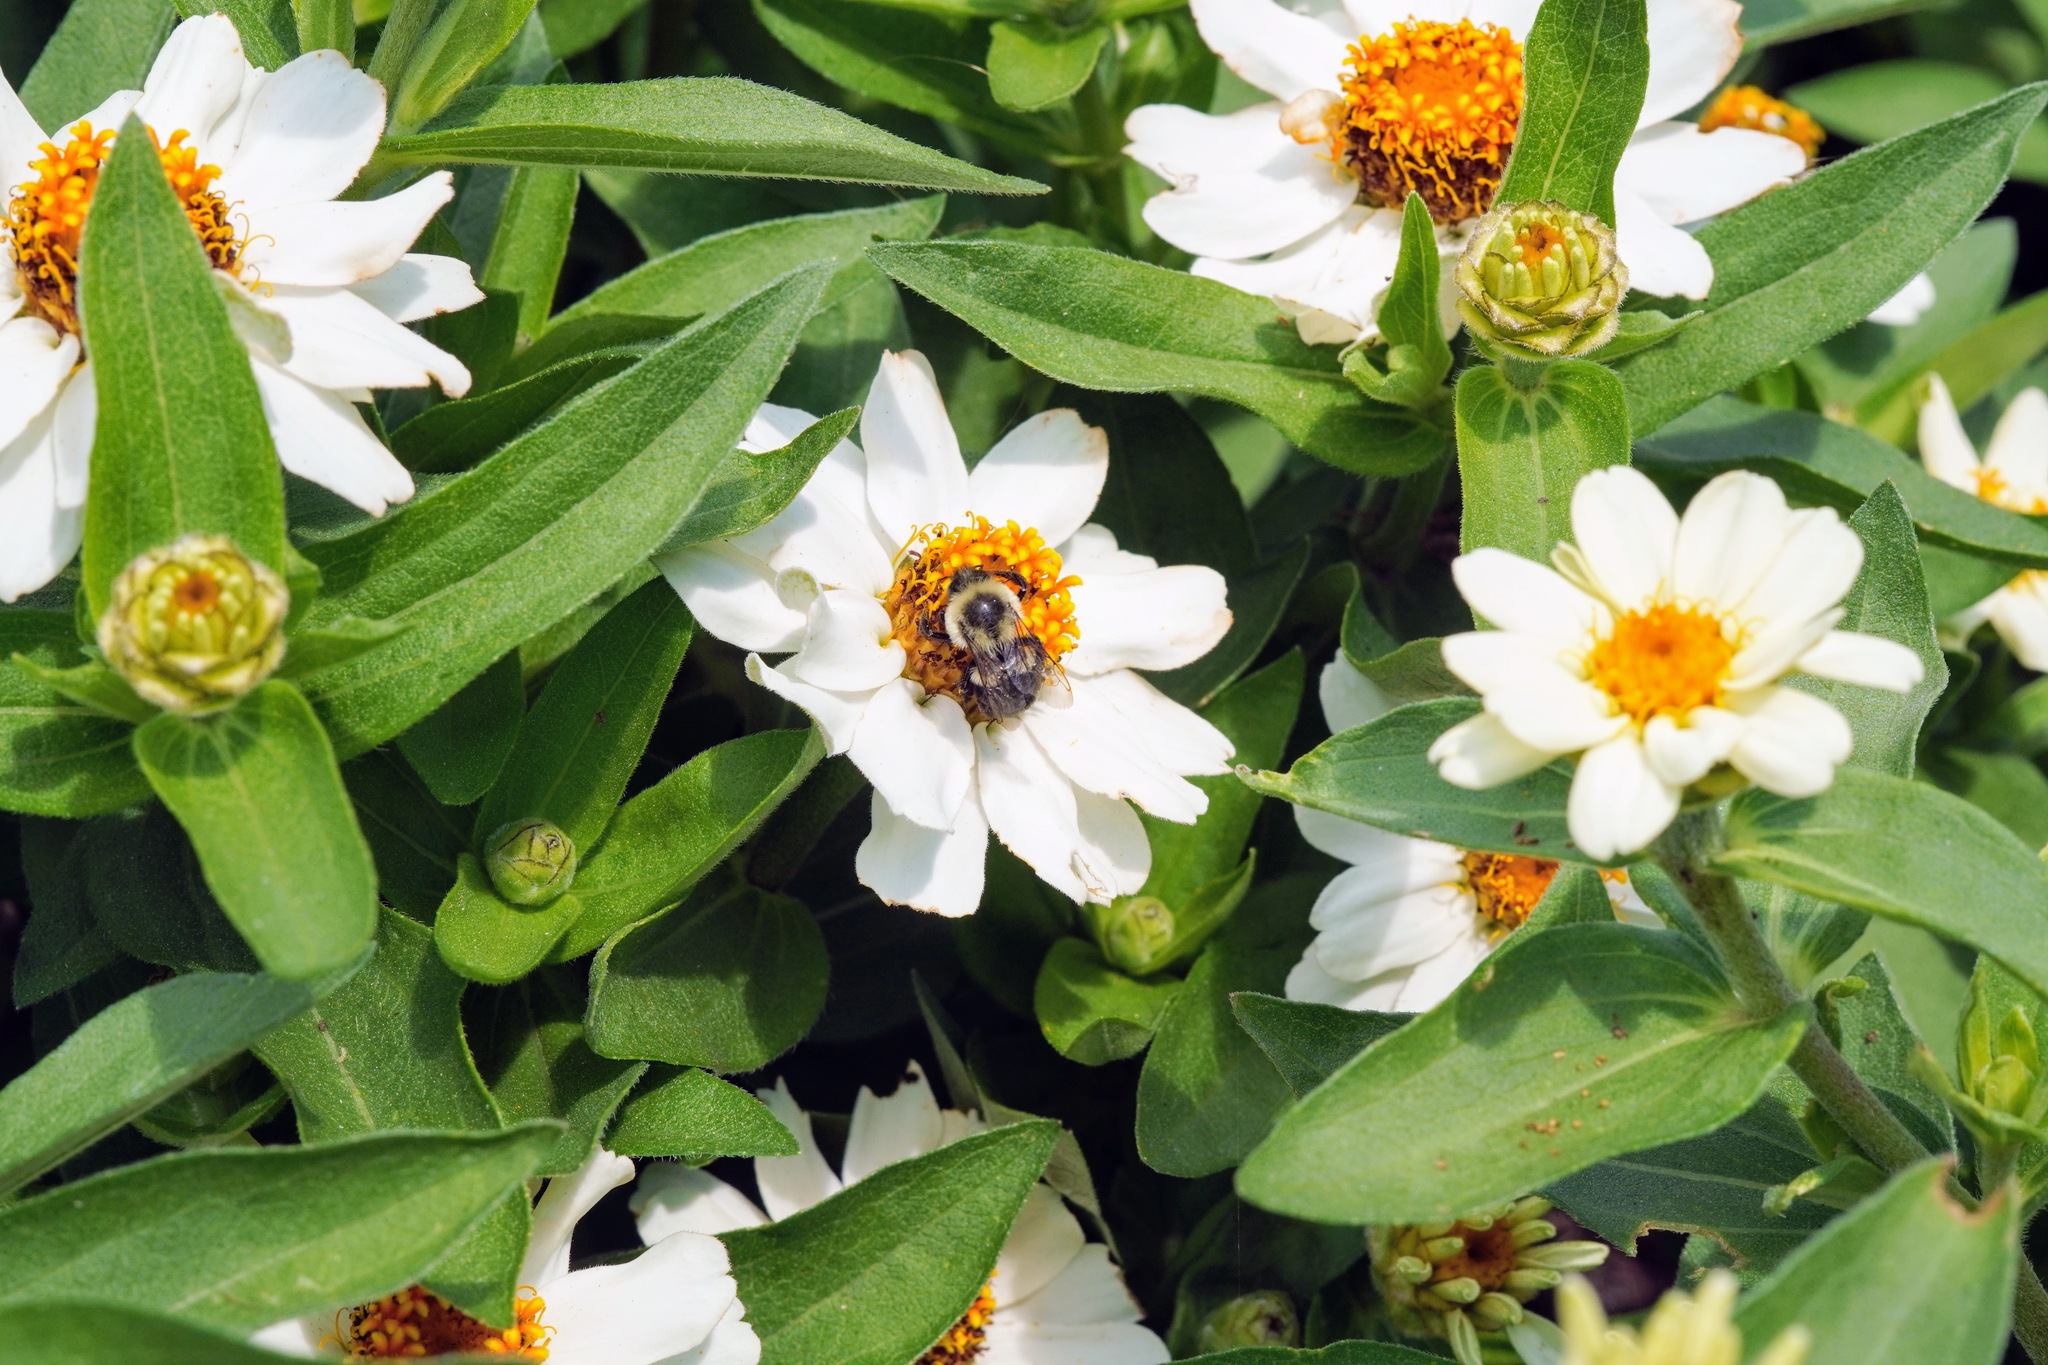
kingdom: Animalia
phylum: Arthropoda
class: Insecta
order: Hymenoptera
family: Apidae
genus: Bombus
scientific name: Bombus impatiens
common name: Common eastern bumble bee
